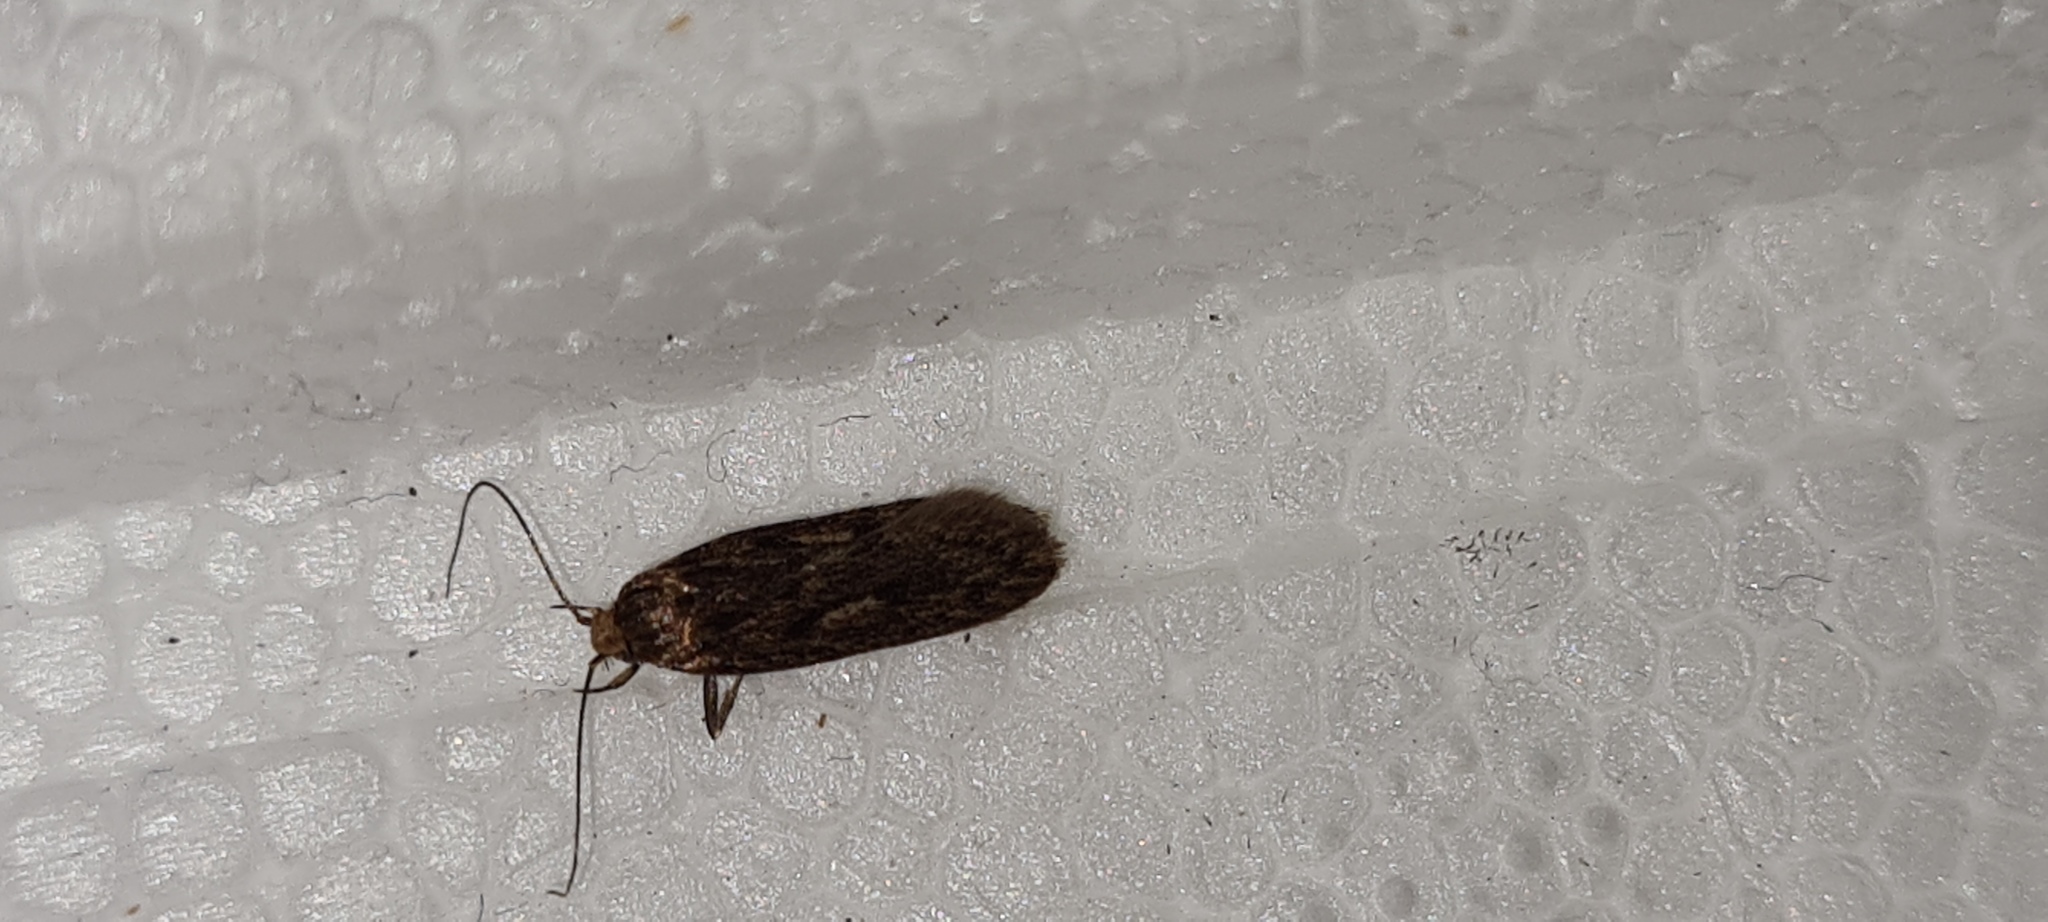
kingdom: Animalia
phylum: Arthropoda
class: Insecta
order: Lepidoptera
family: Oecophoridae
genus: Hofmannophila
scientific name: Hofmannophila pseudospretella
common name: Brown house moth
